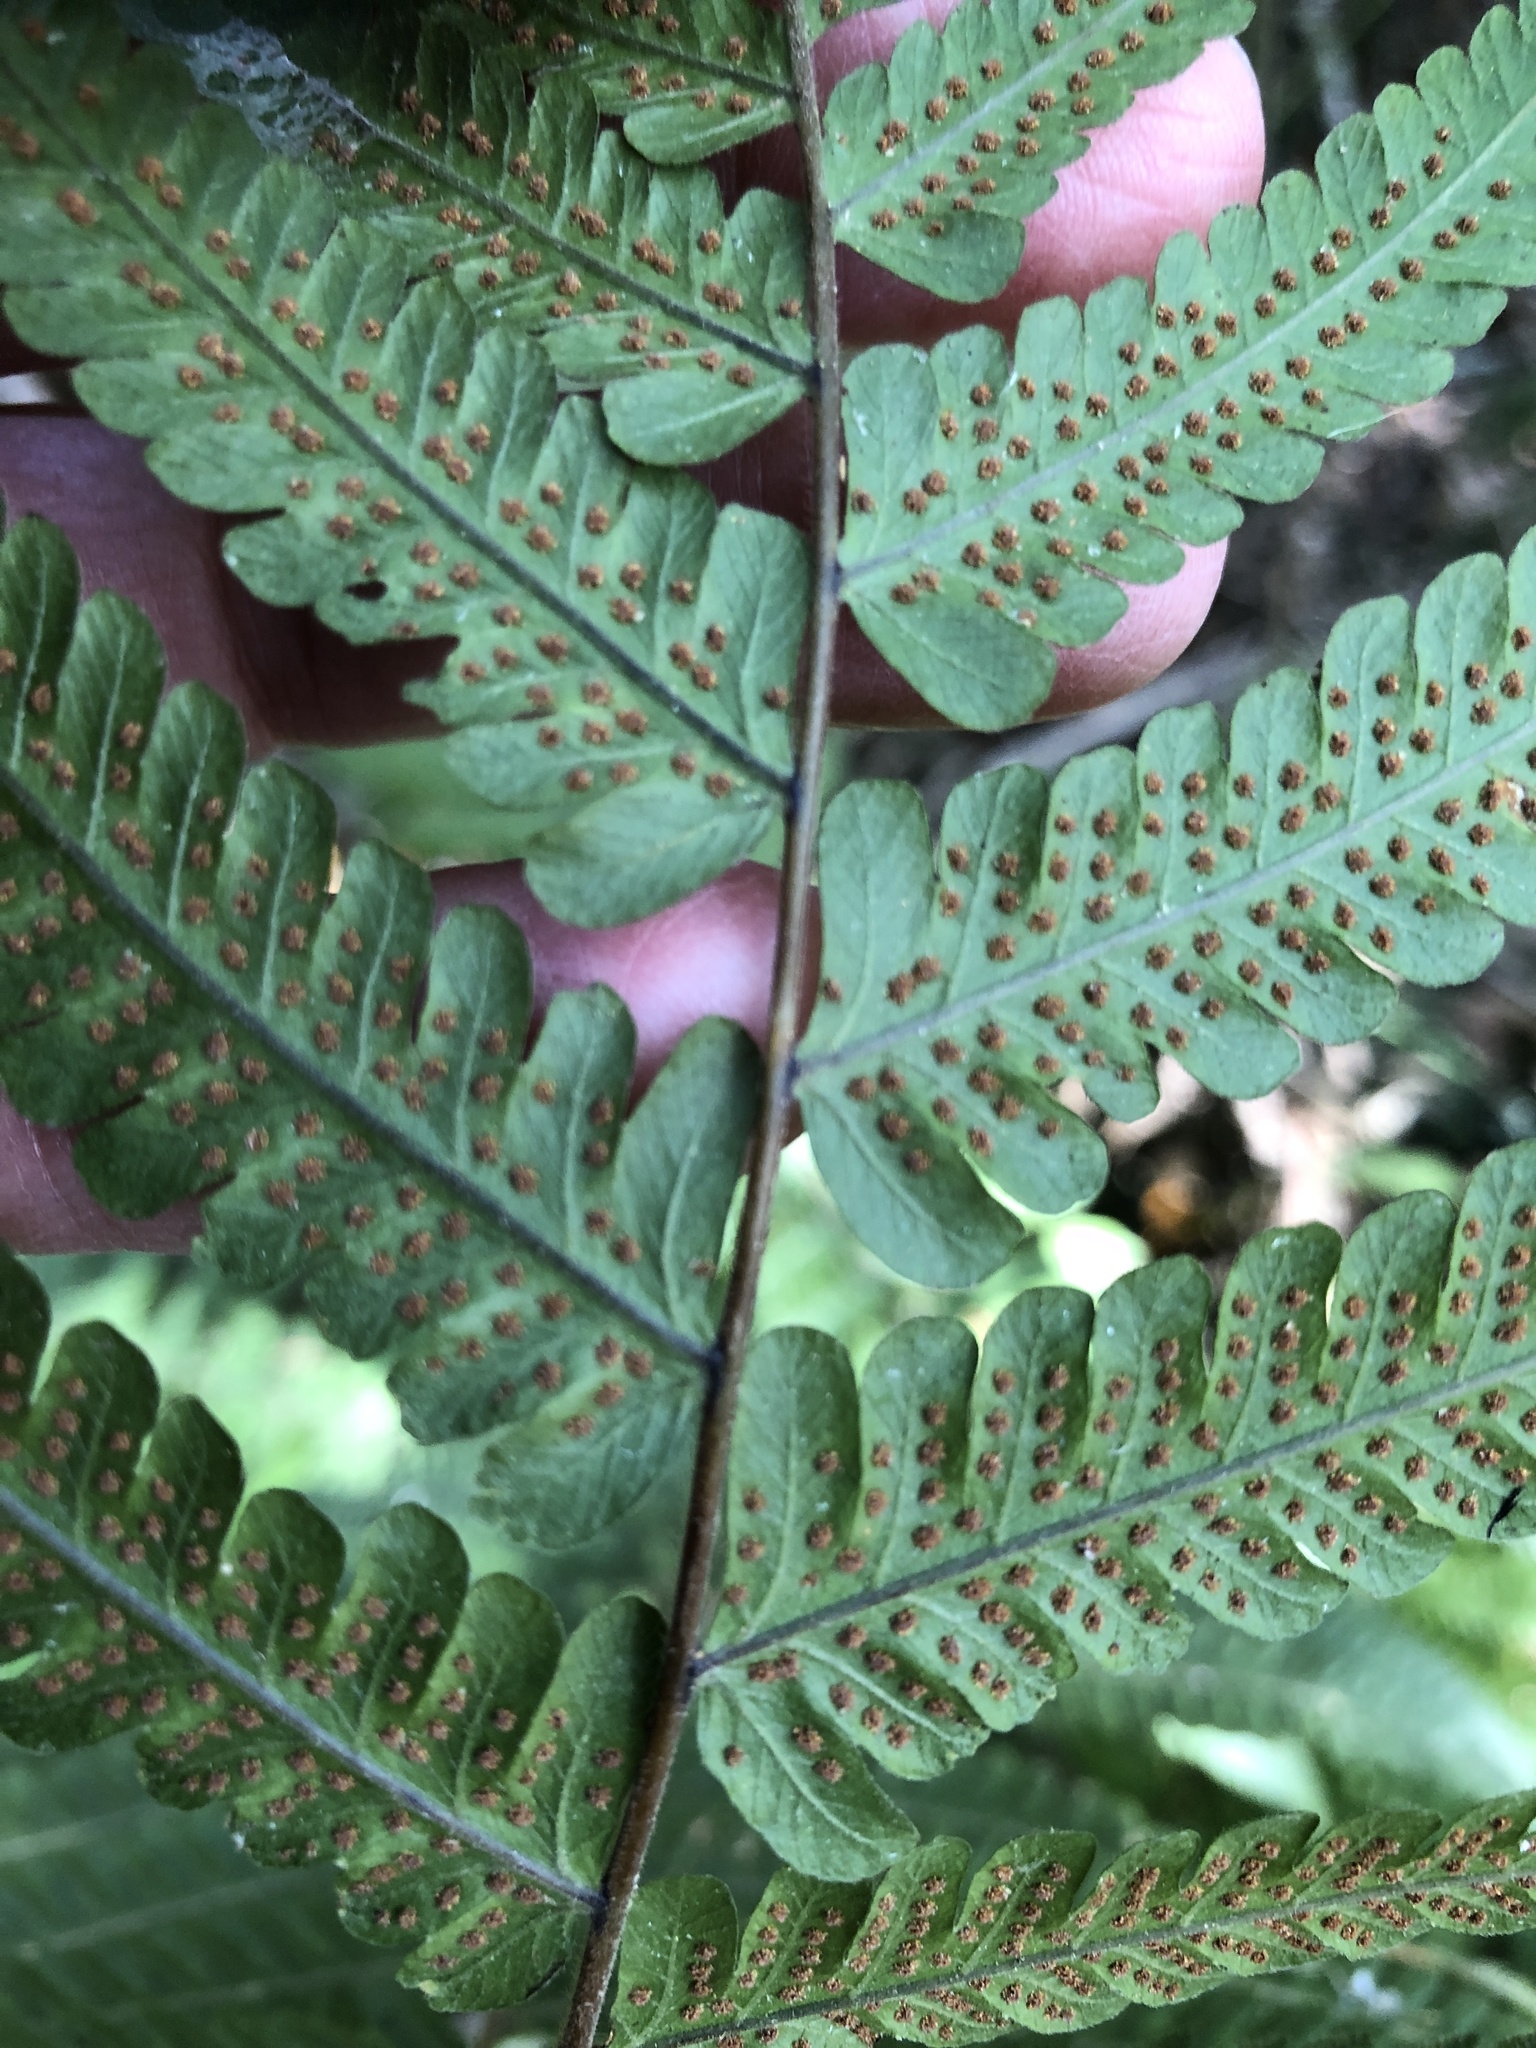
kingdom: Plantae
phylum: Tracheophyta
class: Polypodiopsida
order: Polypodiales
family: Thelypteridaceae
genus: Christella
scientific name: Christella dentata
